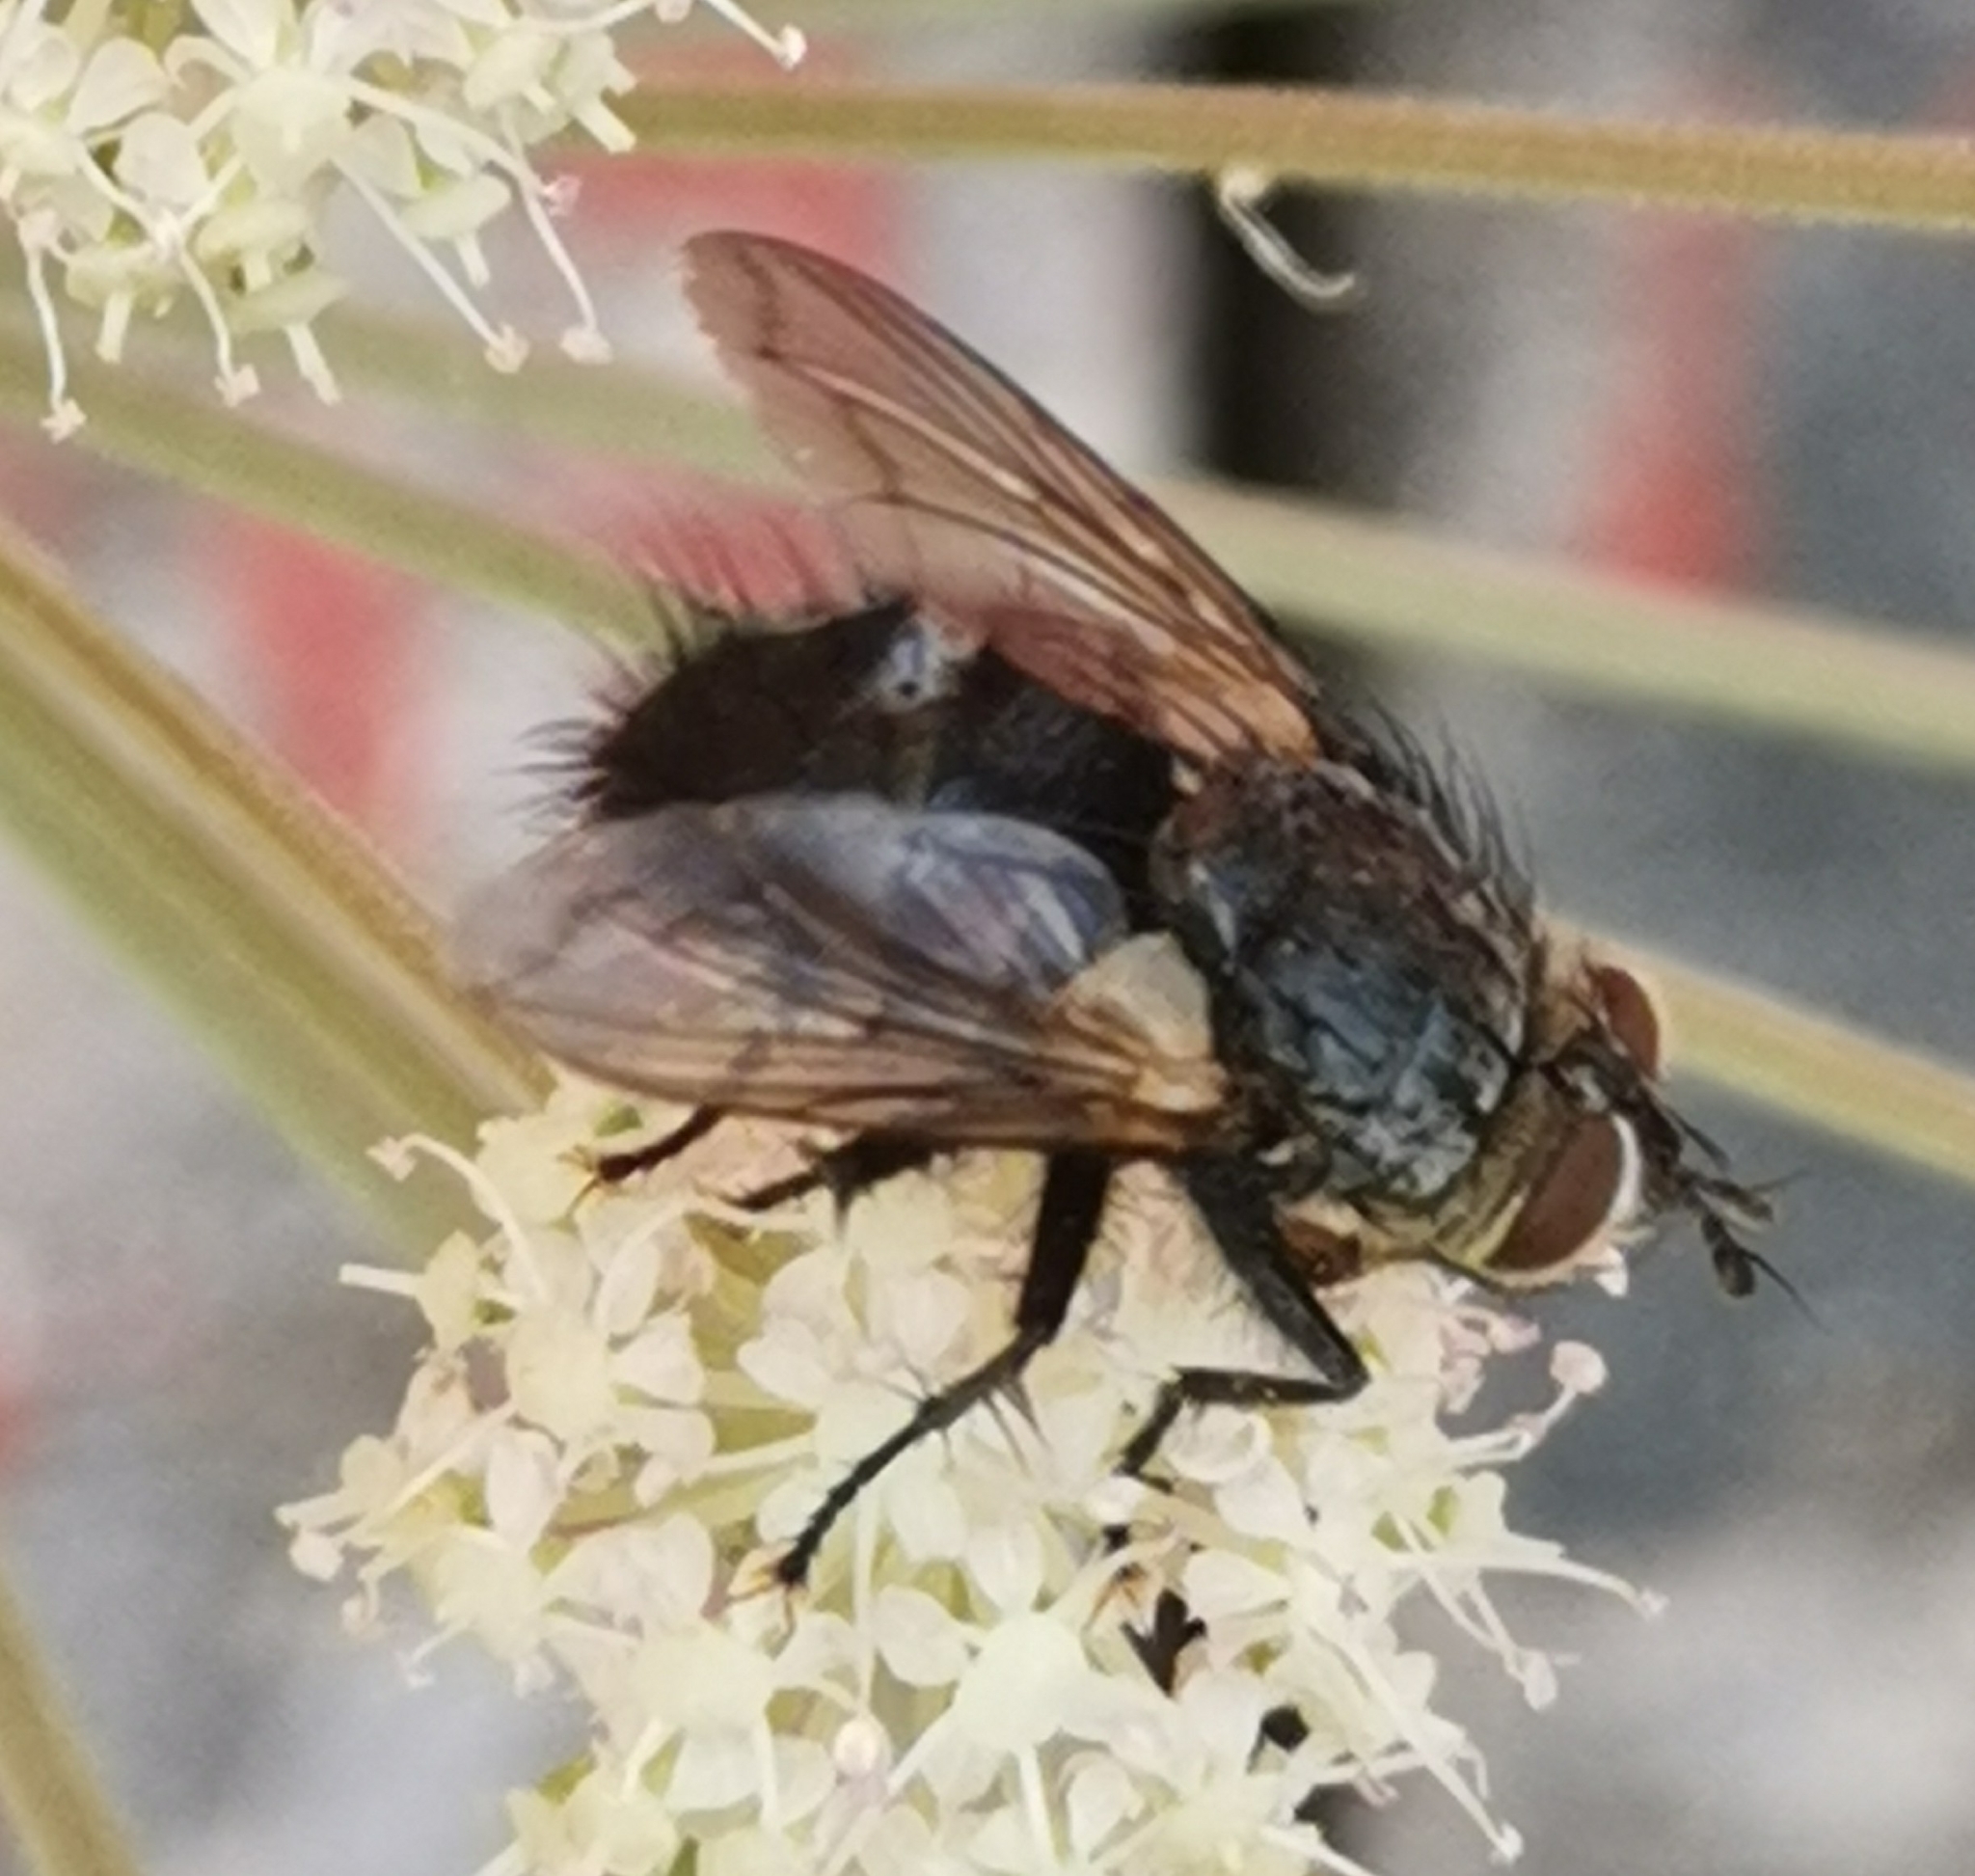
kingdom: Animalia
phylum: Arthropoda
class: Insecta
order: Diptera
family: Tachinidae
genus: Eurithia
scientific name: Eurithia anthophila
